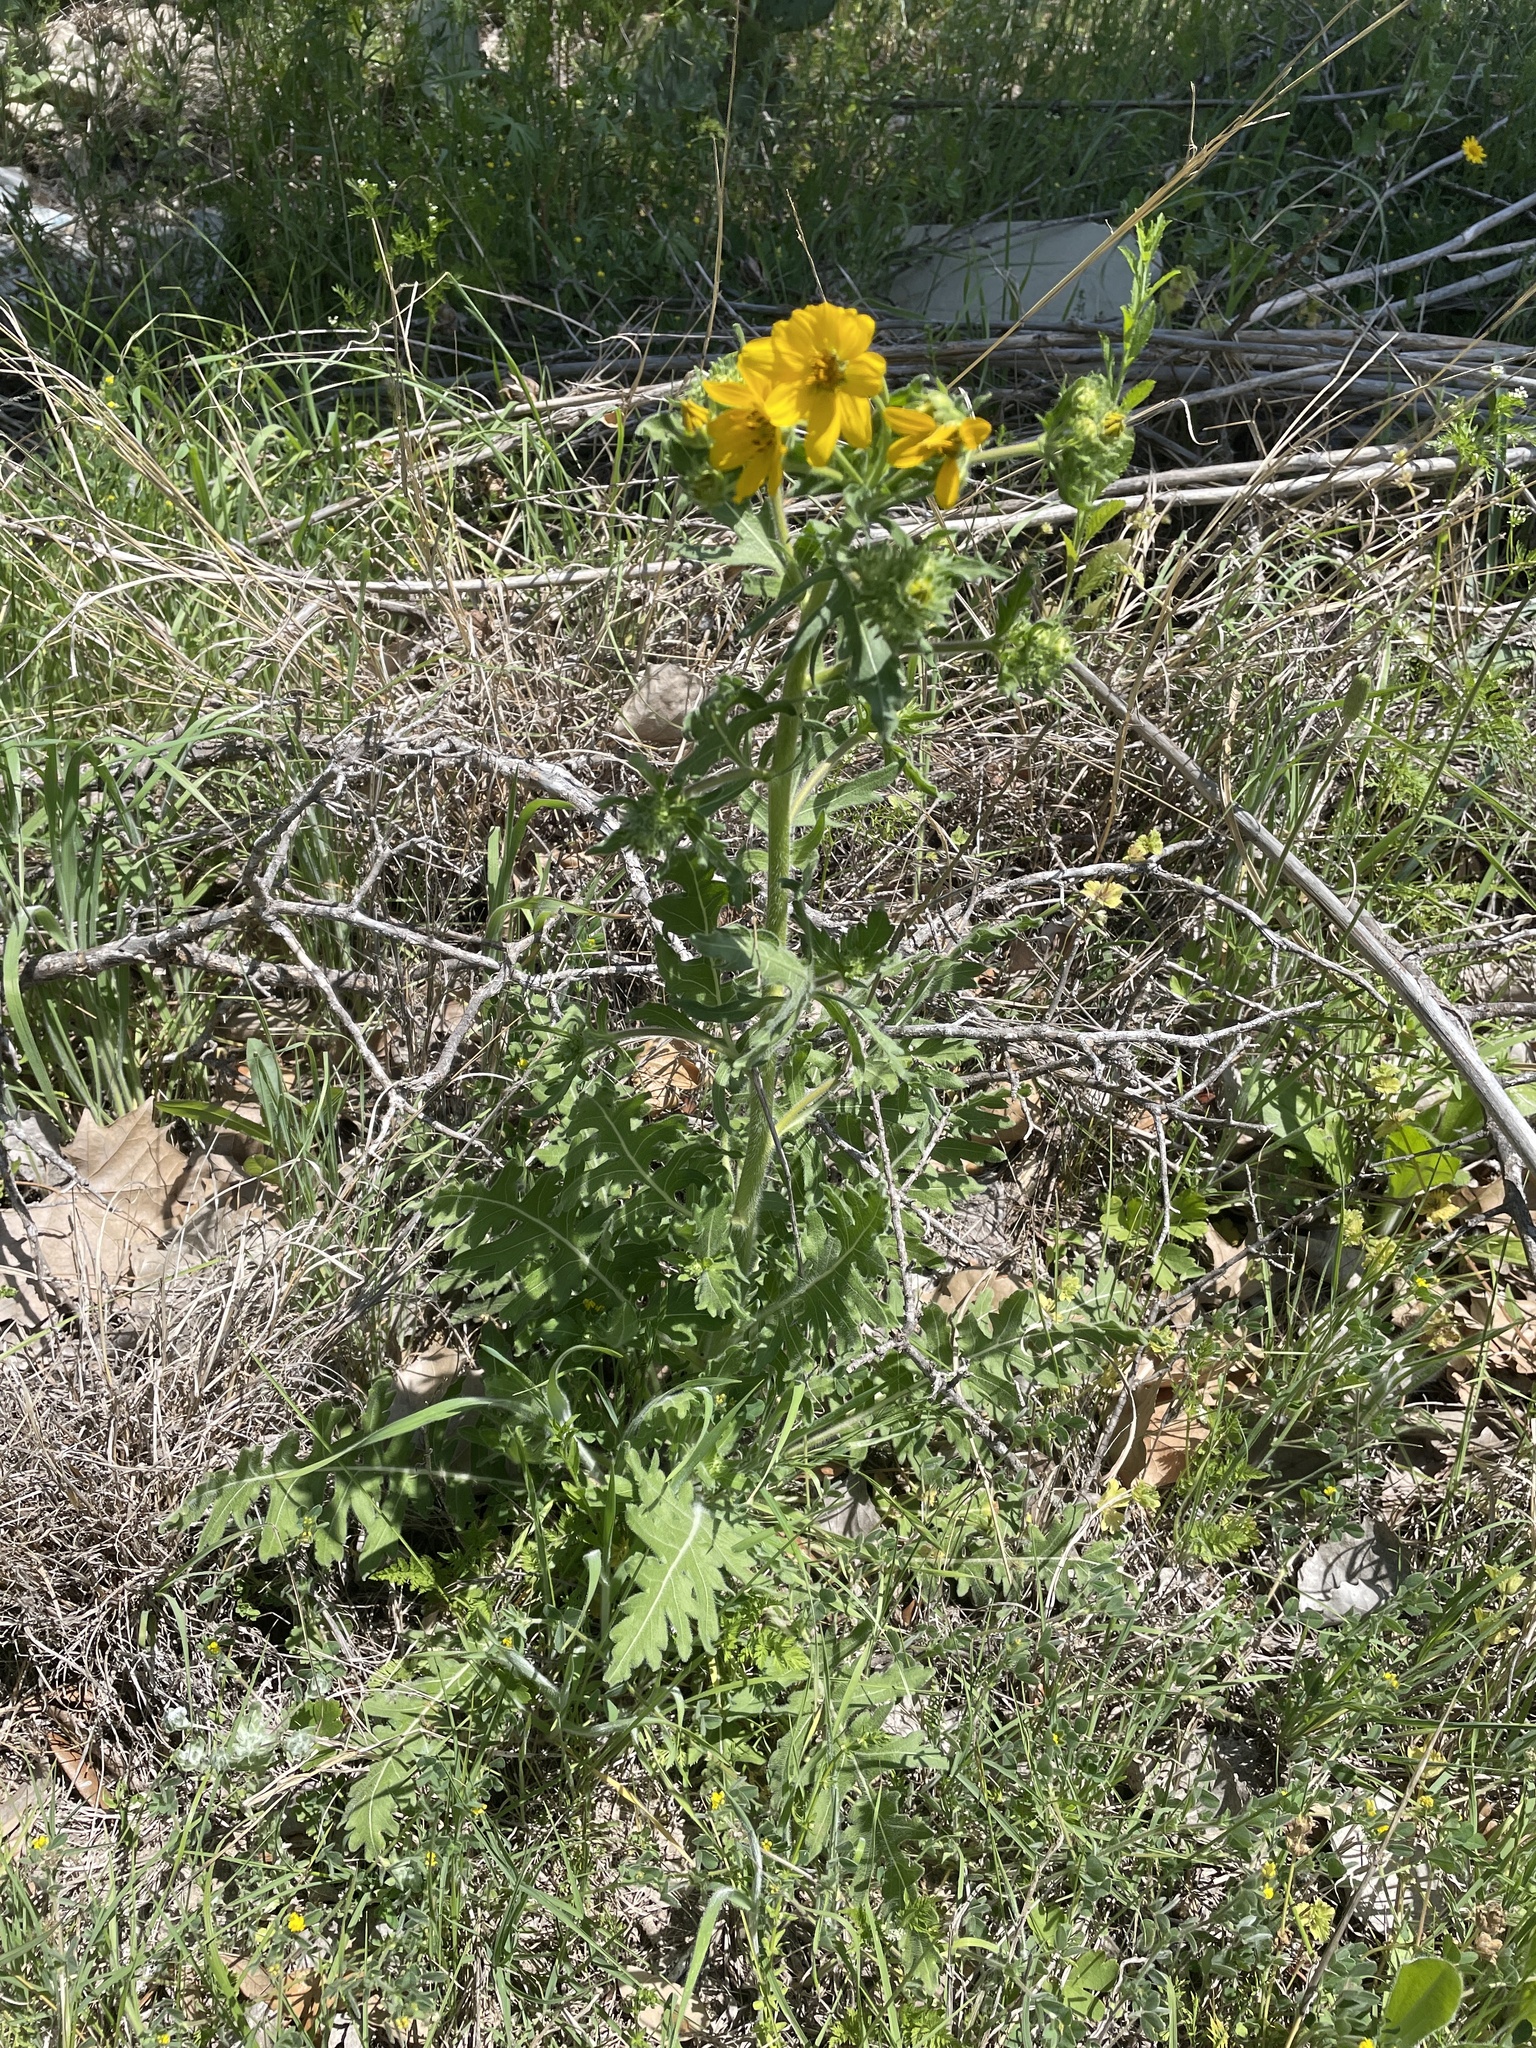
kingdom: Plantae
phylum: Tracheophyta
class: Magnoliopsida
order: Asterales
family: Asteraceae
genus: Engelmannia
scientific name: Engelmannia peristenia
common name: Engelmann's daisy
